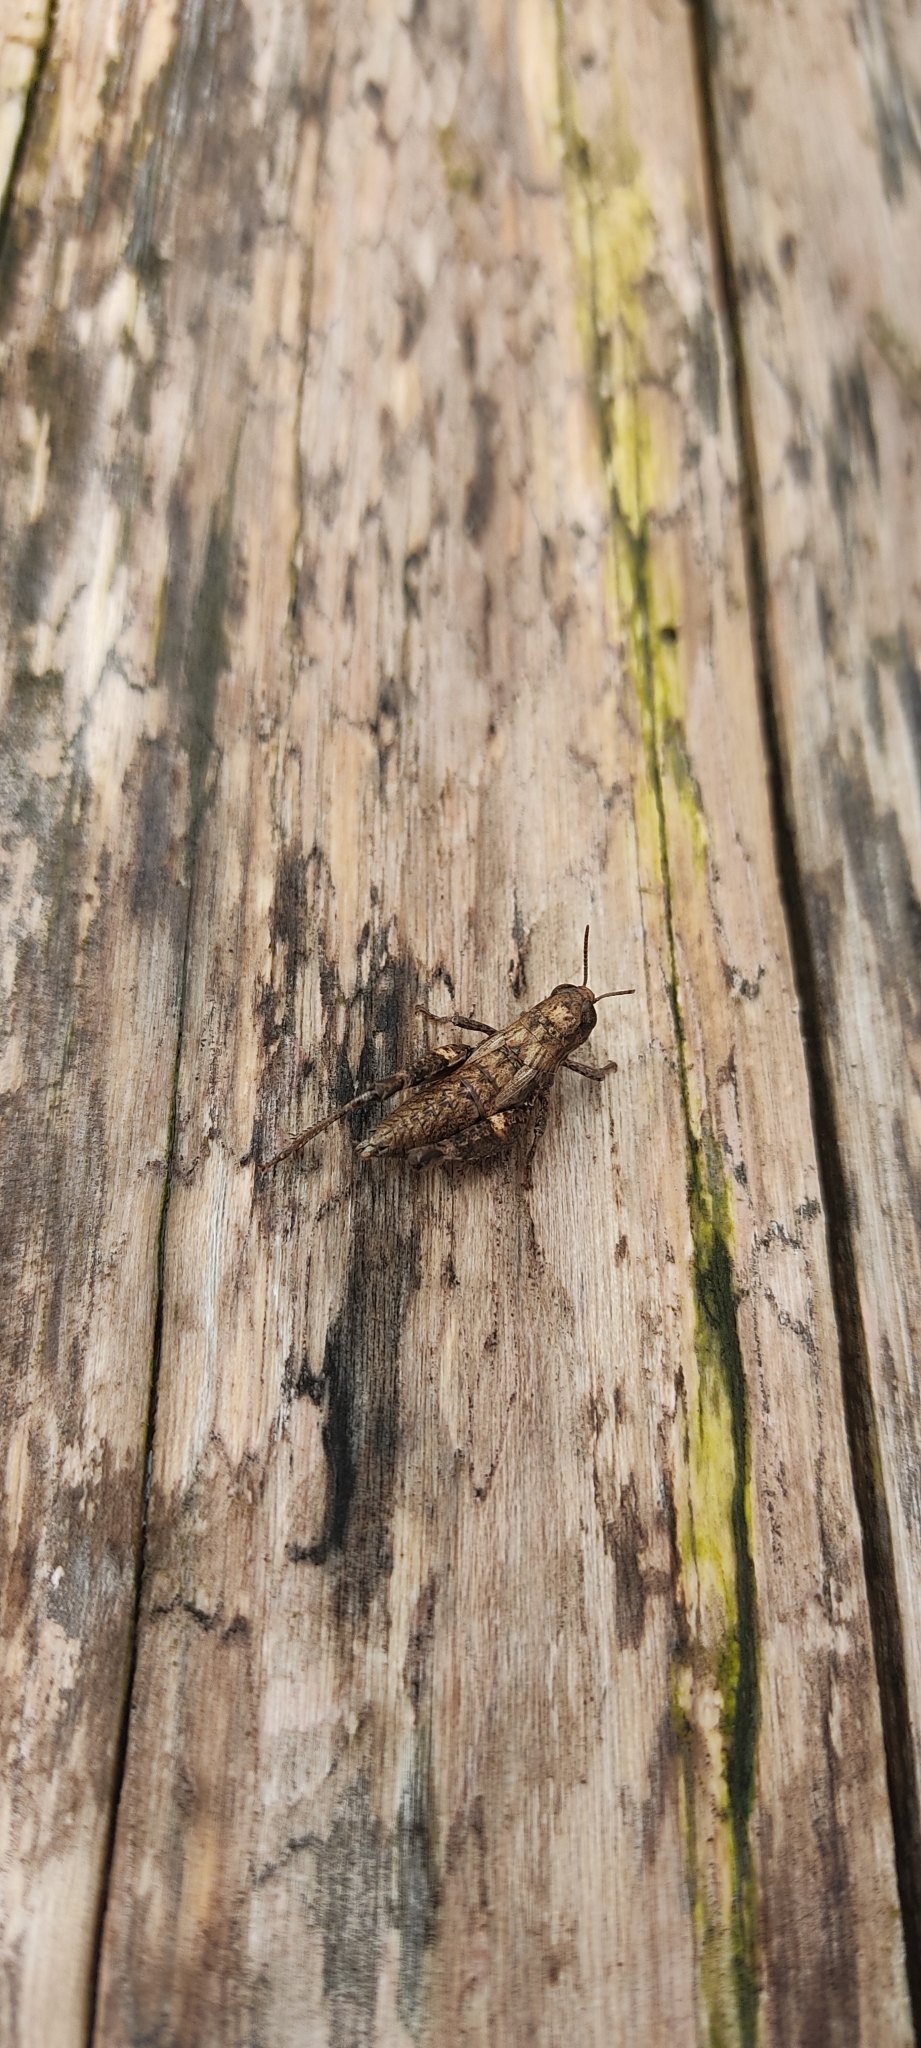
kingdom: Animalia
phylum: Arthropoda
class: Insecta
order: Orthoptera
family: Acrididae
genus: Pezotettix
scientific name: Pezotettix giornae
